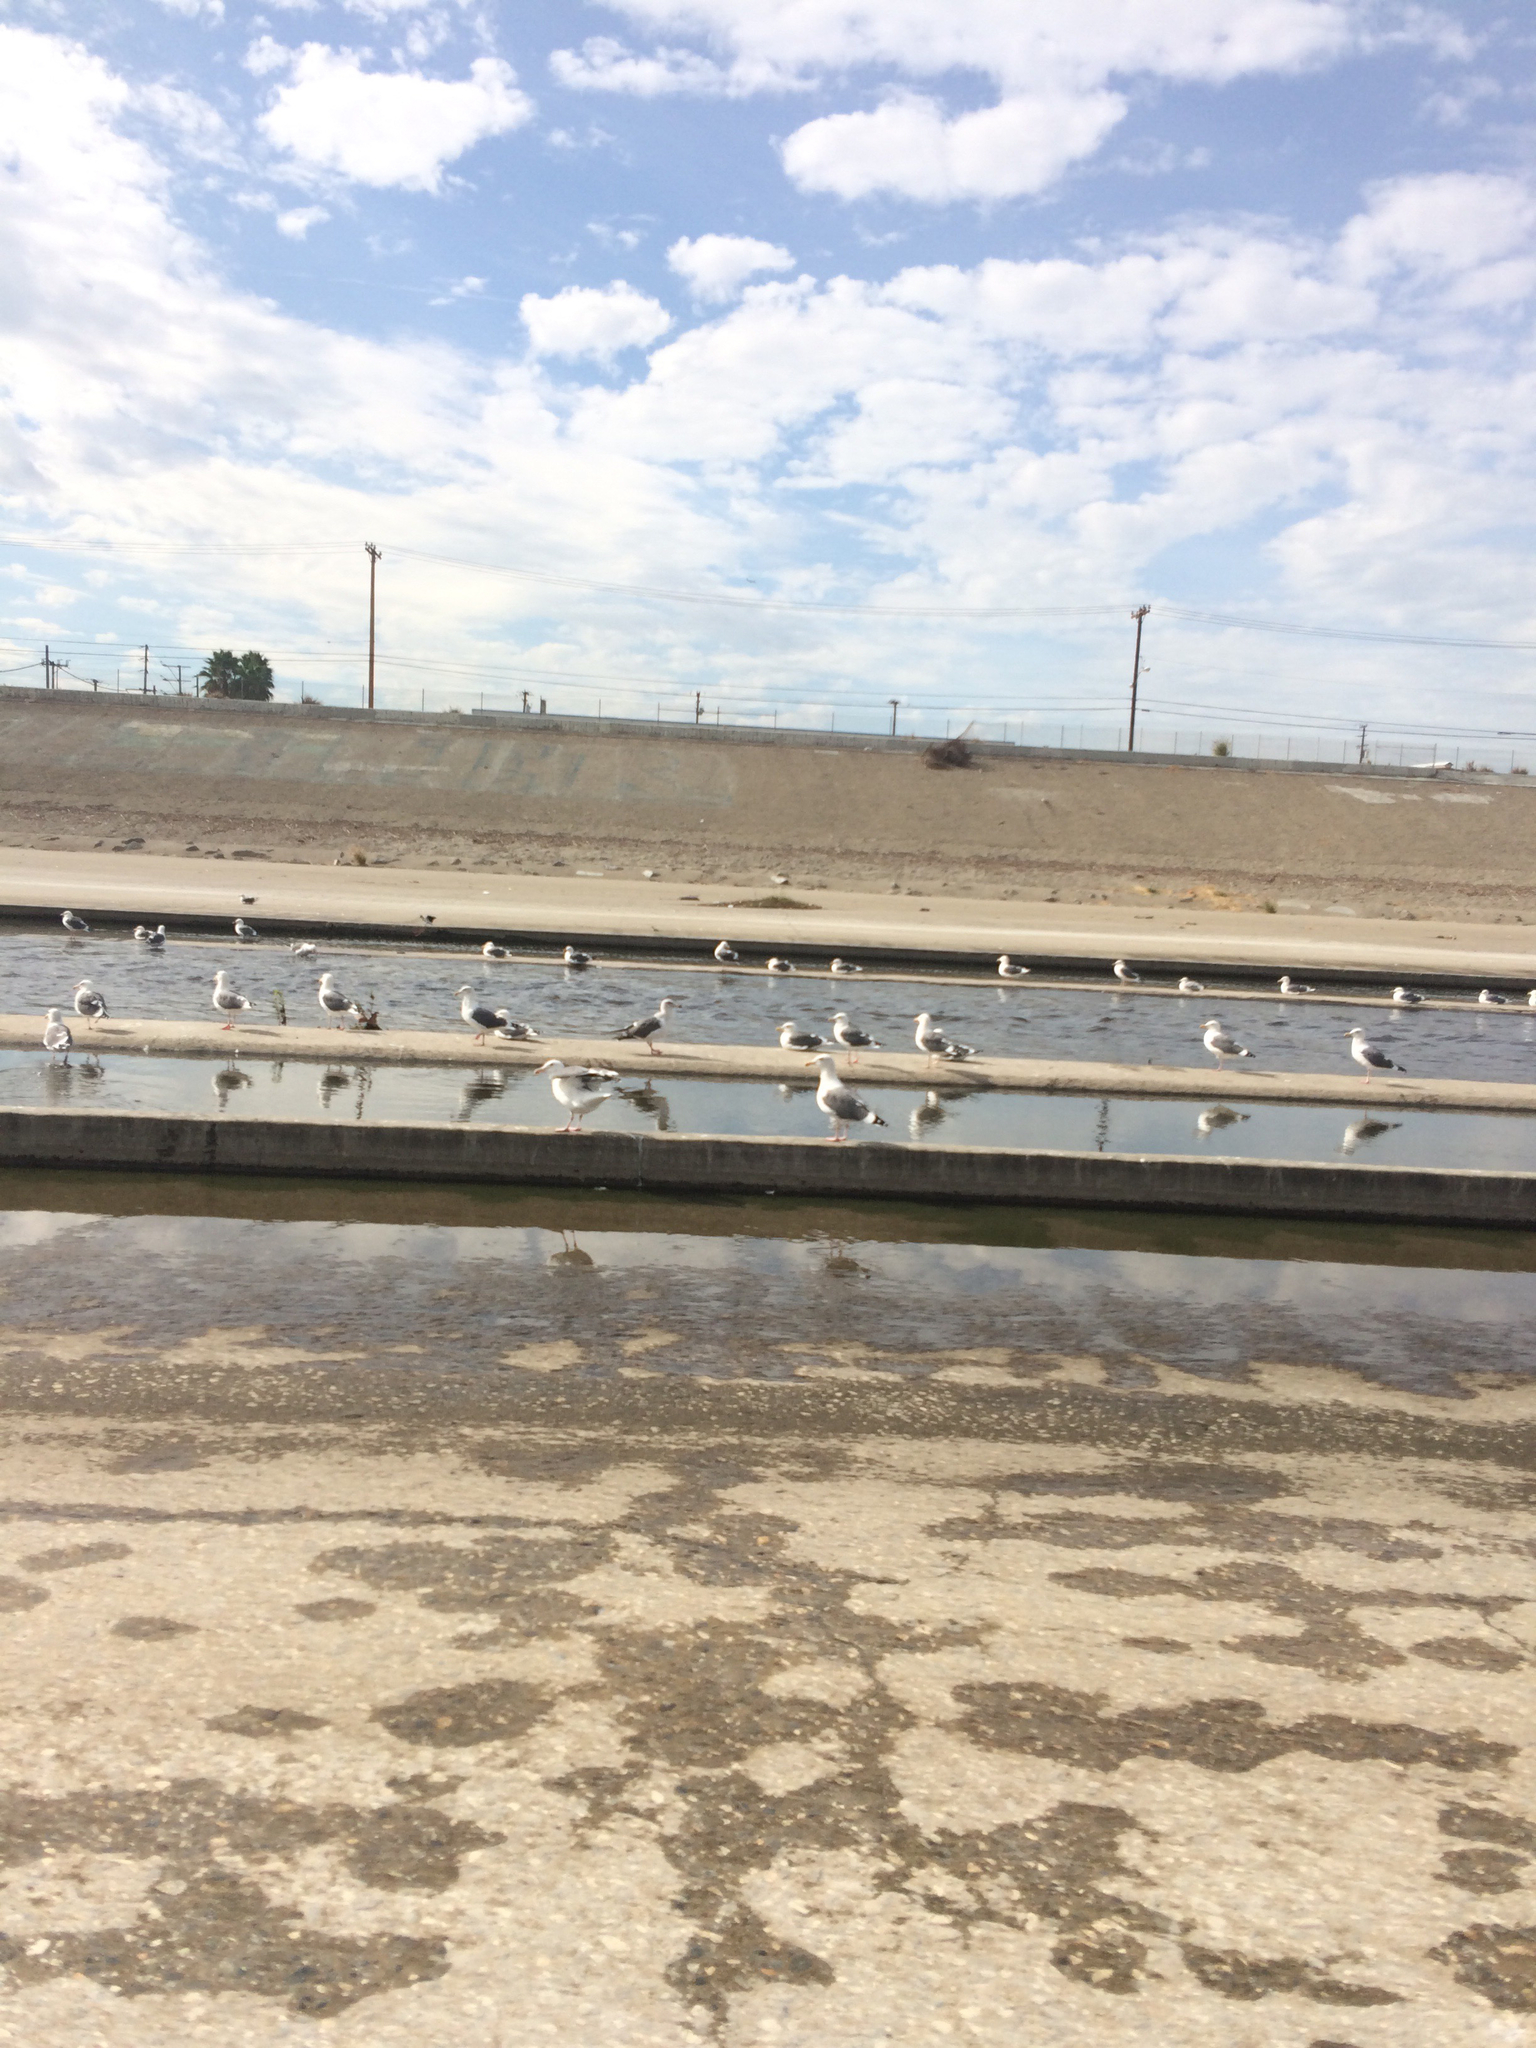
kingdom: Animalia
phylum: Chordata
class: Aves
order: Charadriiformes
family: Laridae
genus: Larus
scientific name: Larus occidentalis
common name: Western gull
